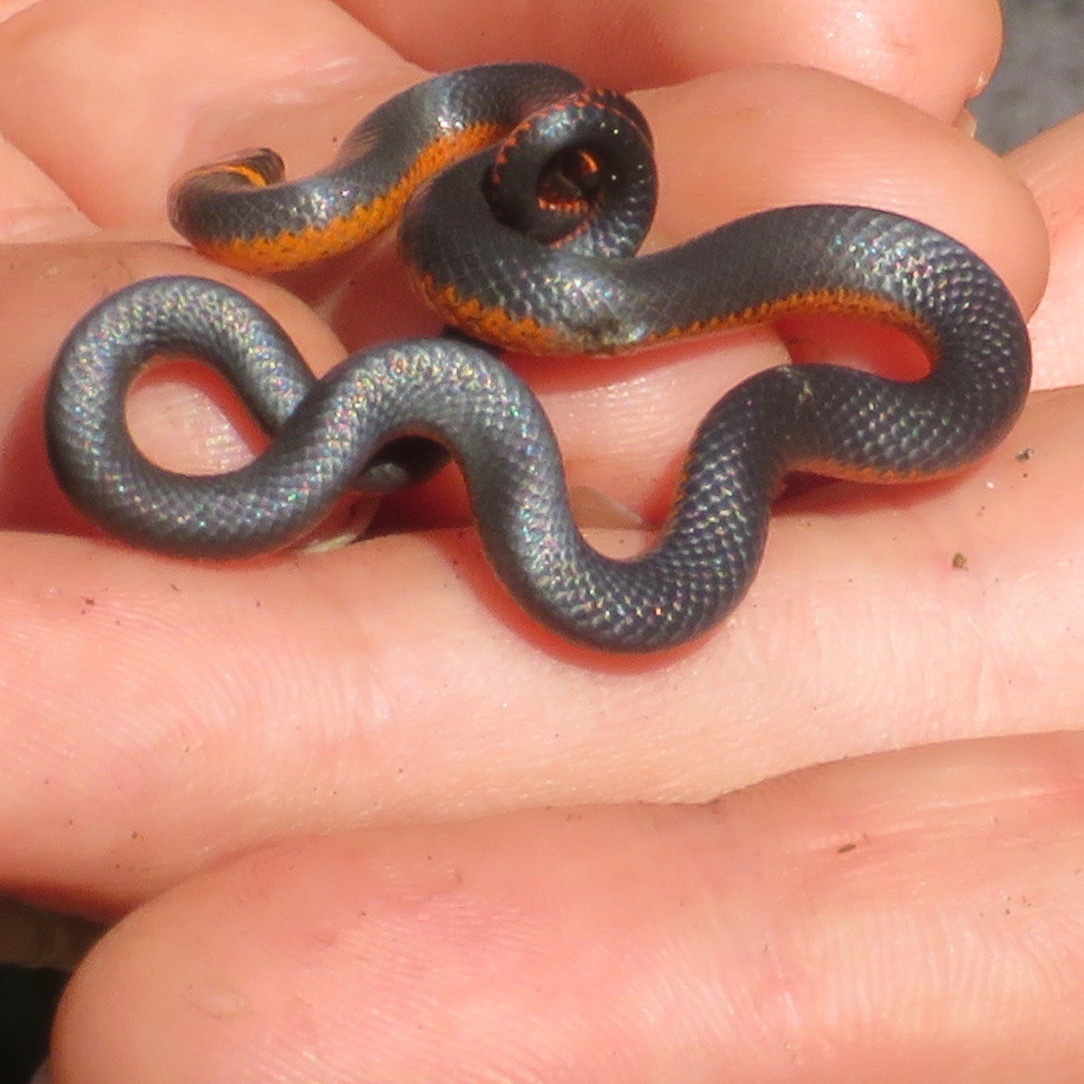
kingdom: Animalia
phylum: Chordata
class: Squamata
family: Colubridae
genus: Diadophis
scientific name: Diadophis punctatus
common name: Ringneck snake
